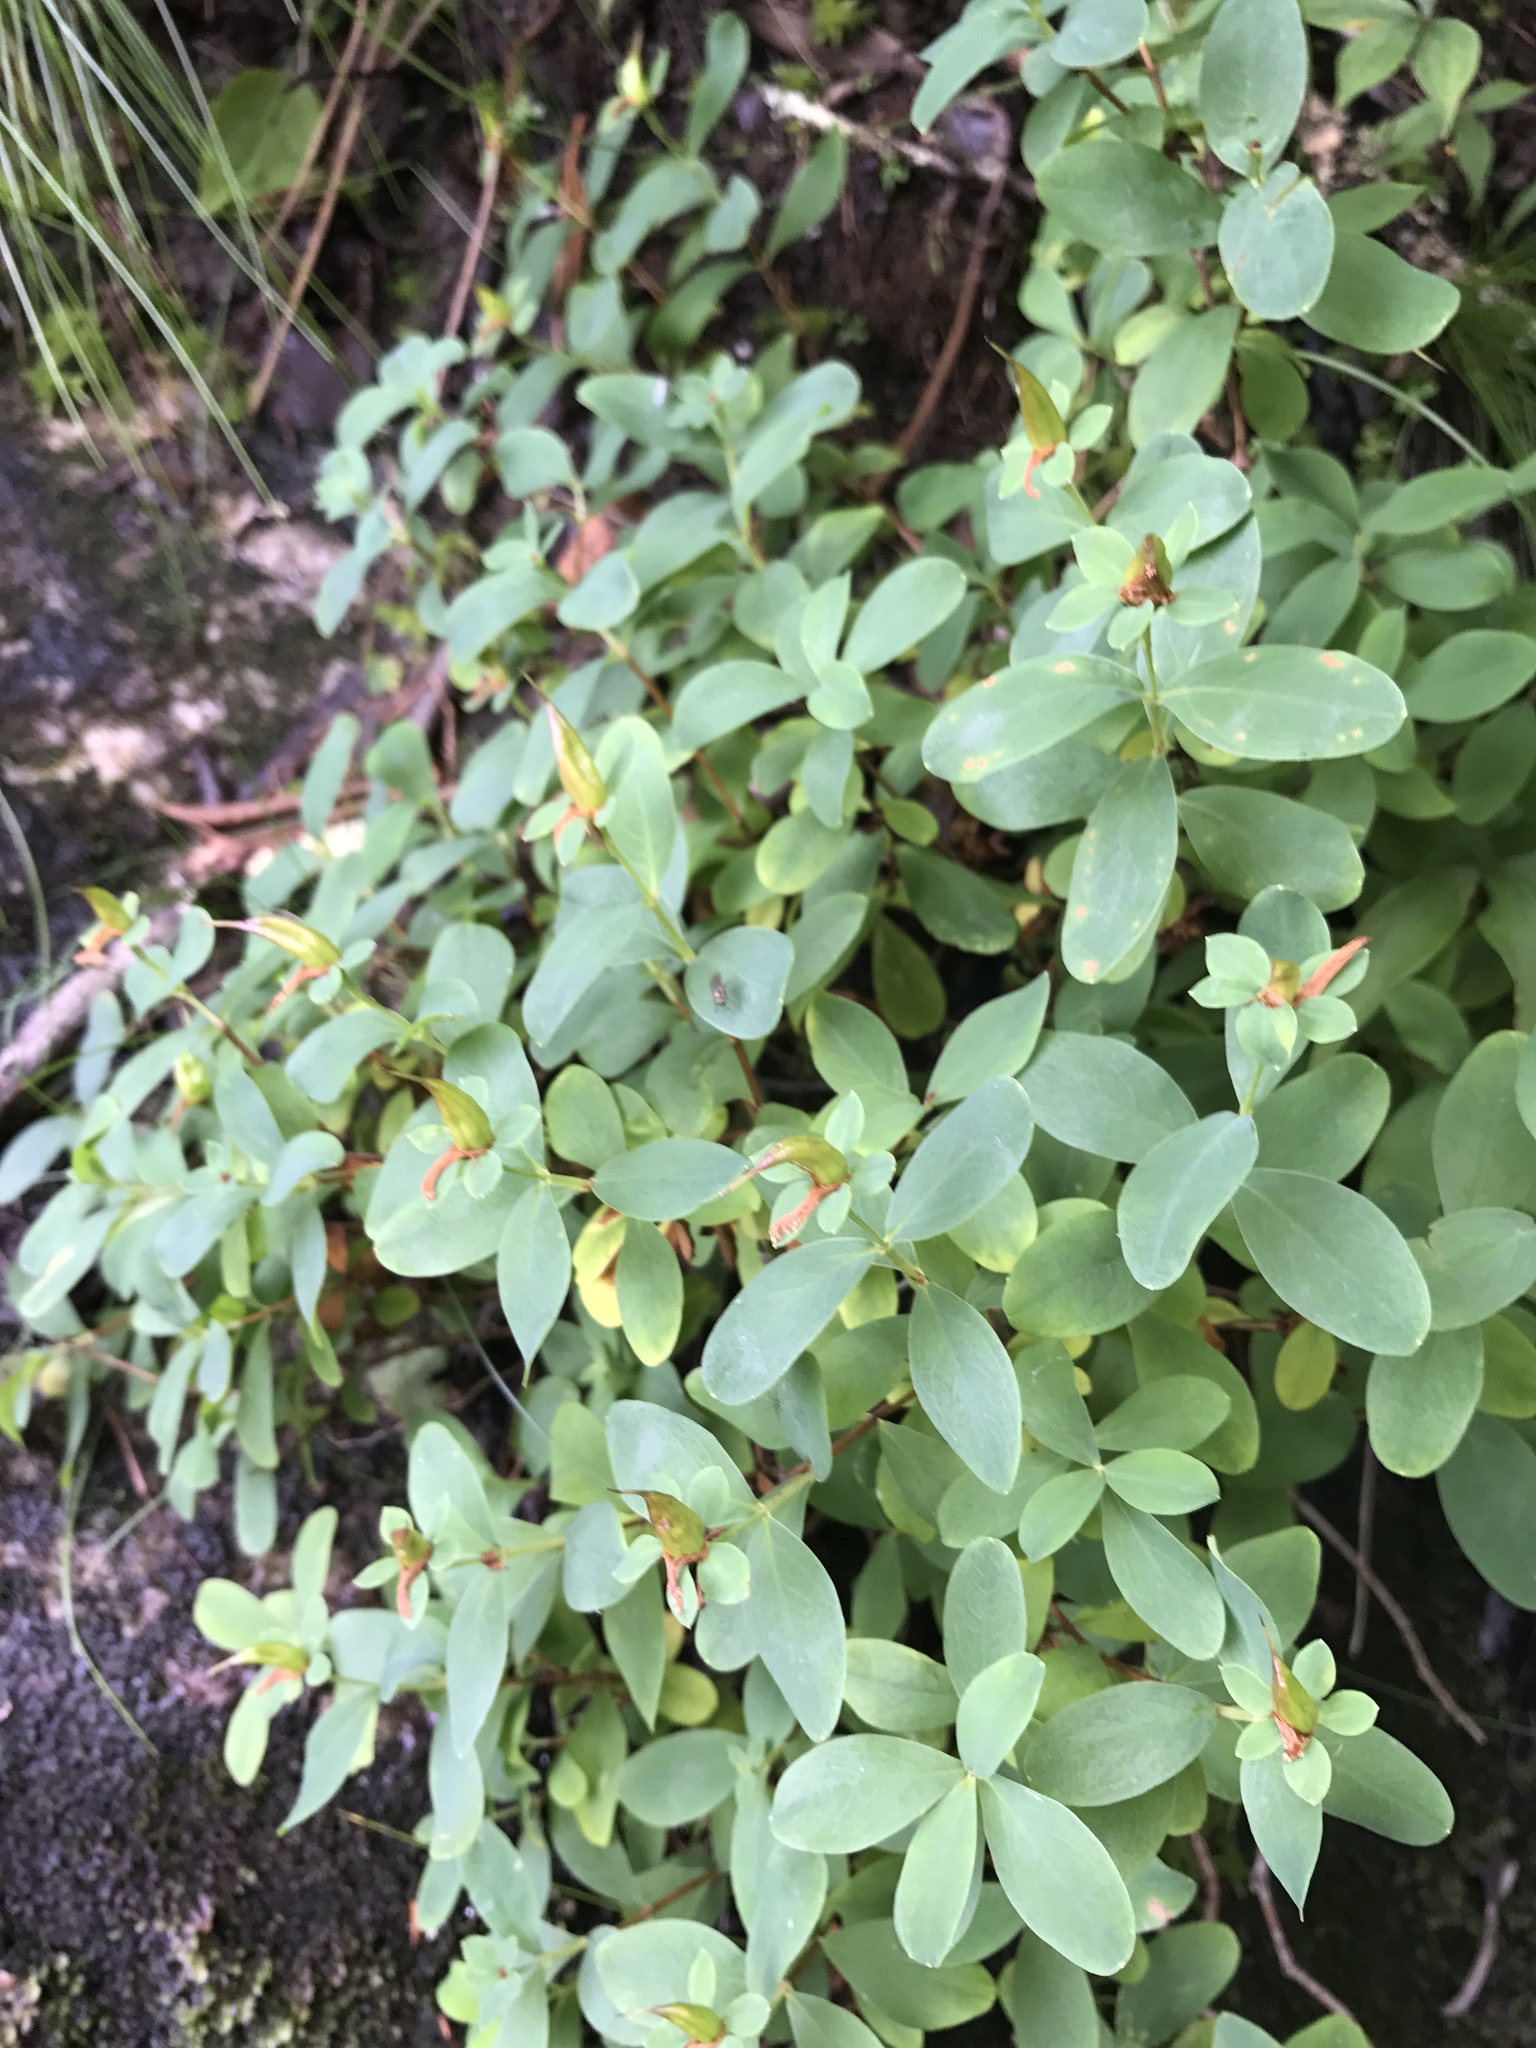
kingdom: Plantae
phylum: Tracheophyta
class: Magnoliopsida
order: Malpighiales
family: Hypericaceae
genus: Hypericum
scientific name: Hypericum buckleyi
